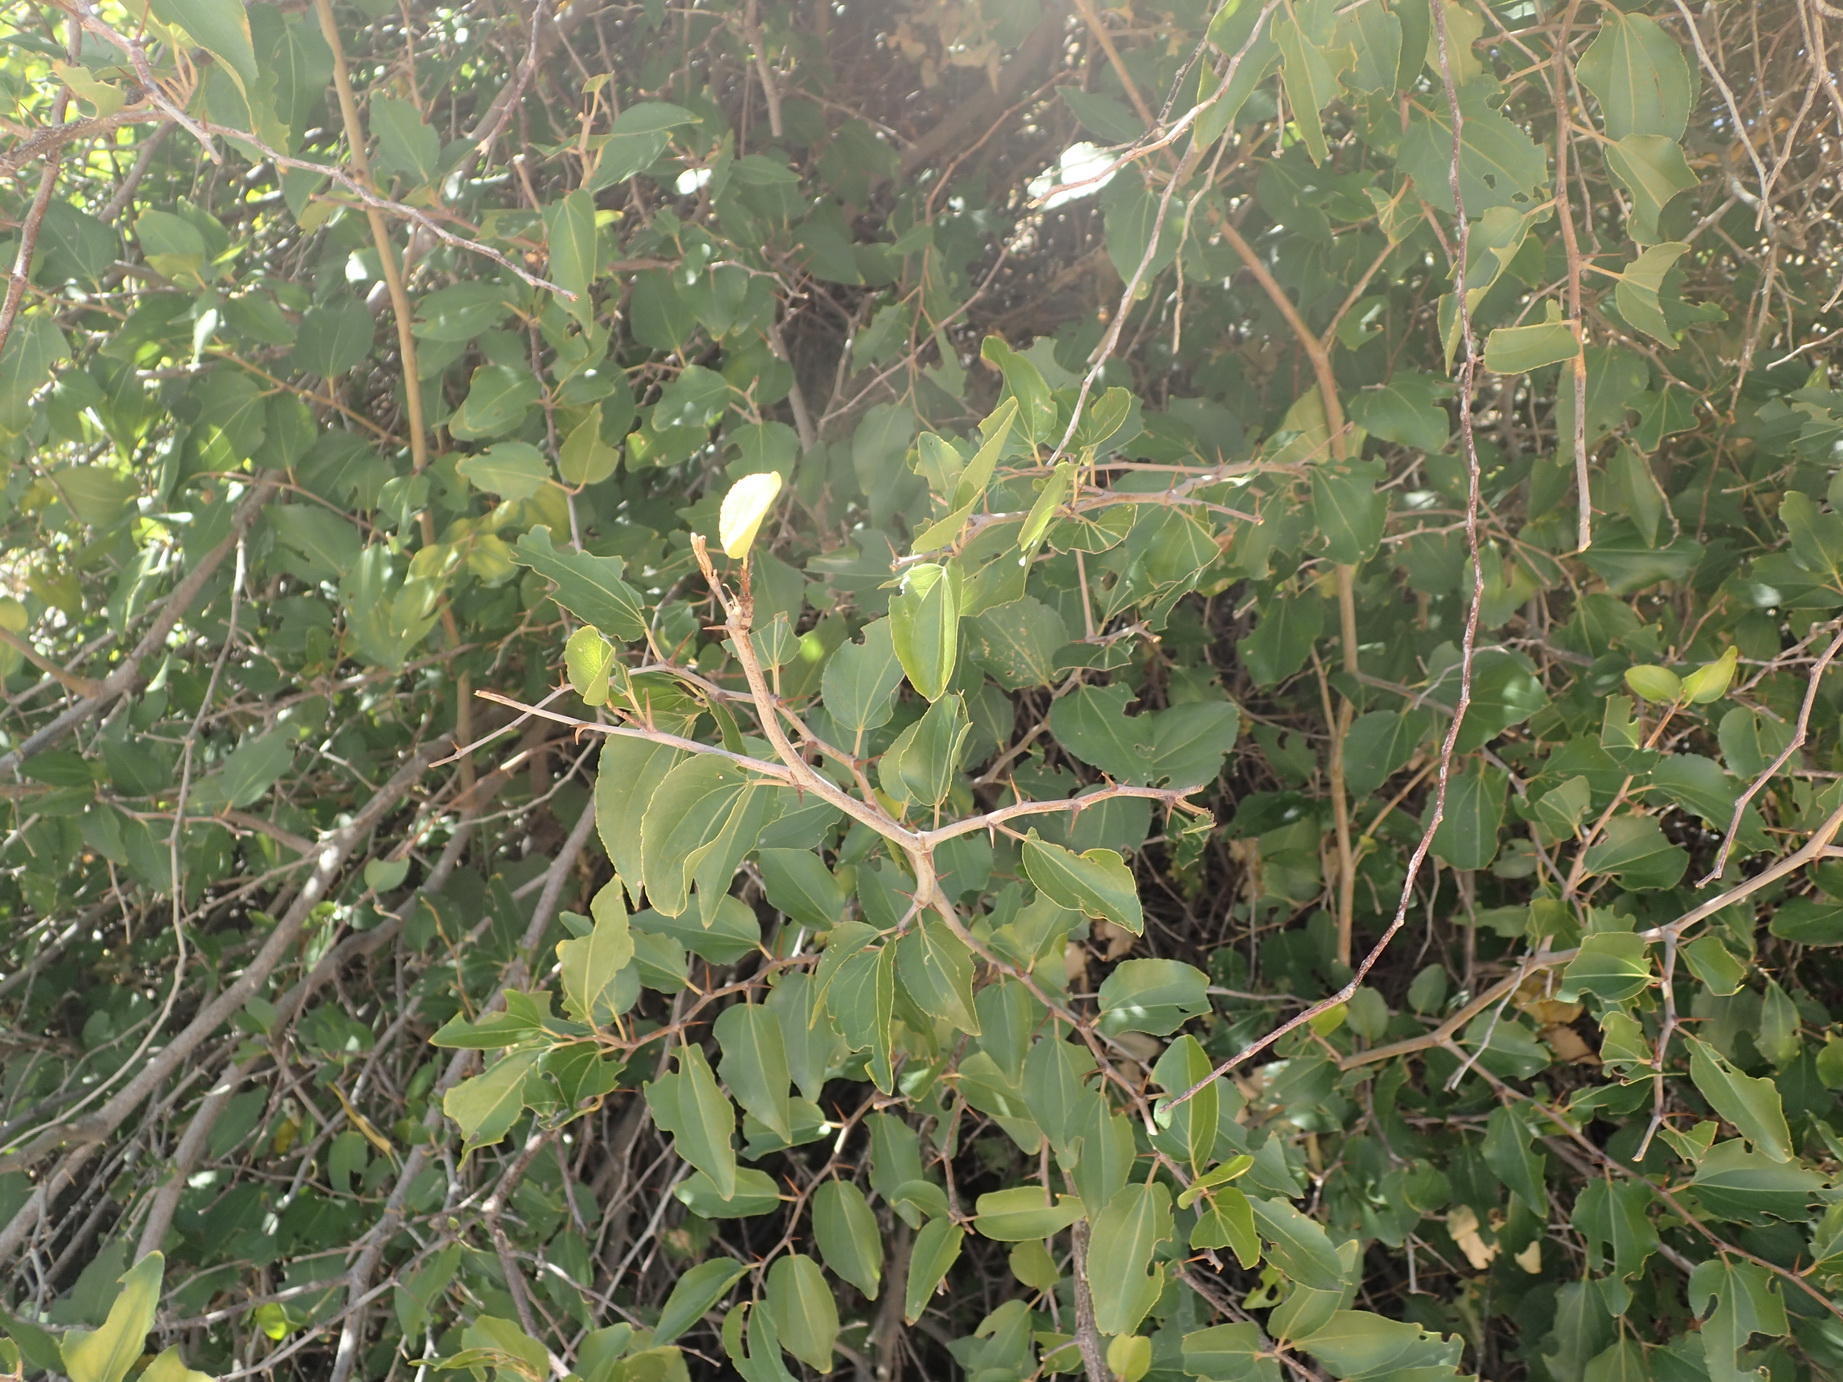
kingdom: Plantae
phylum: Tracheophyta
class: Magnoliopsida
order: Rosales
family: Rhamnaceae
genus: Ziziphus
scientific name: Ziziphus mucronata
